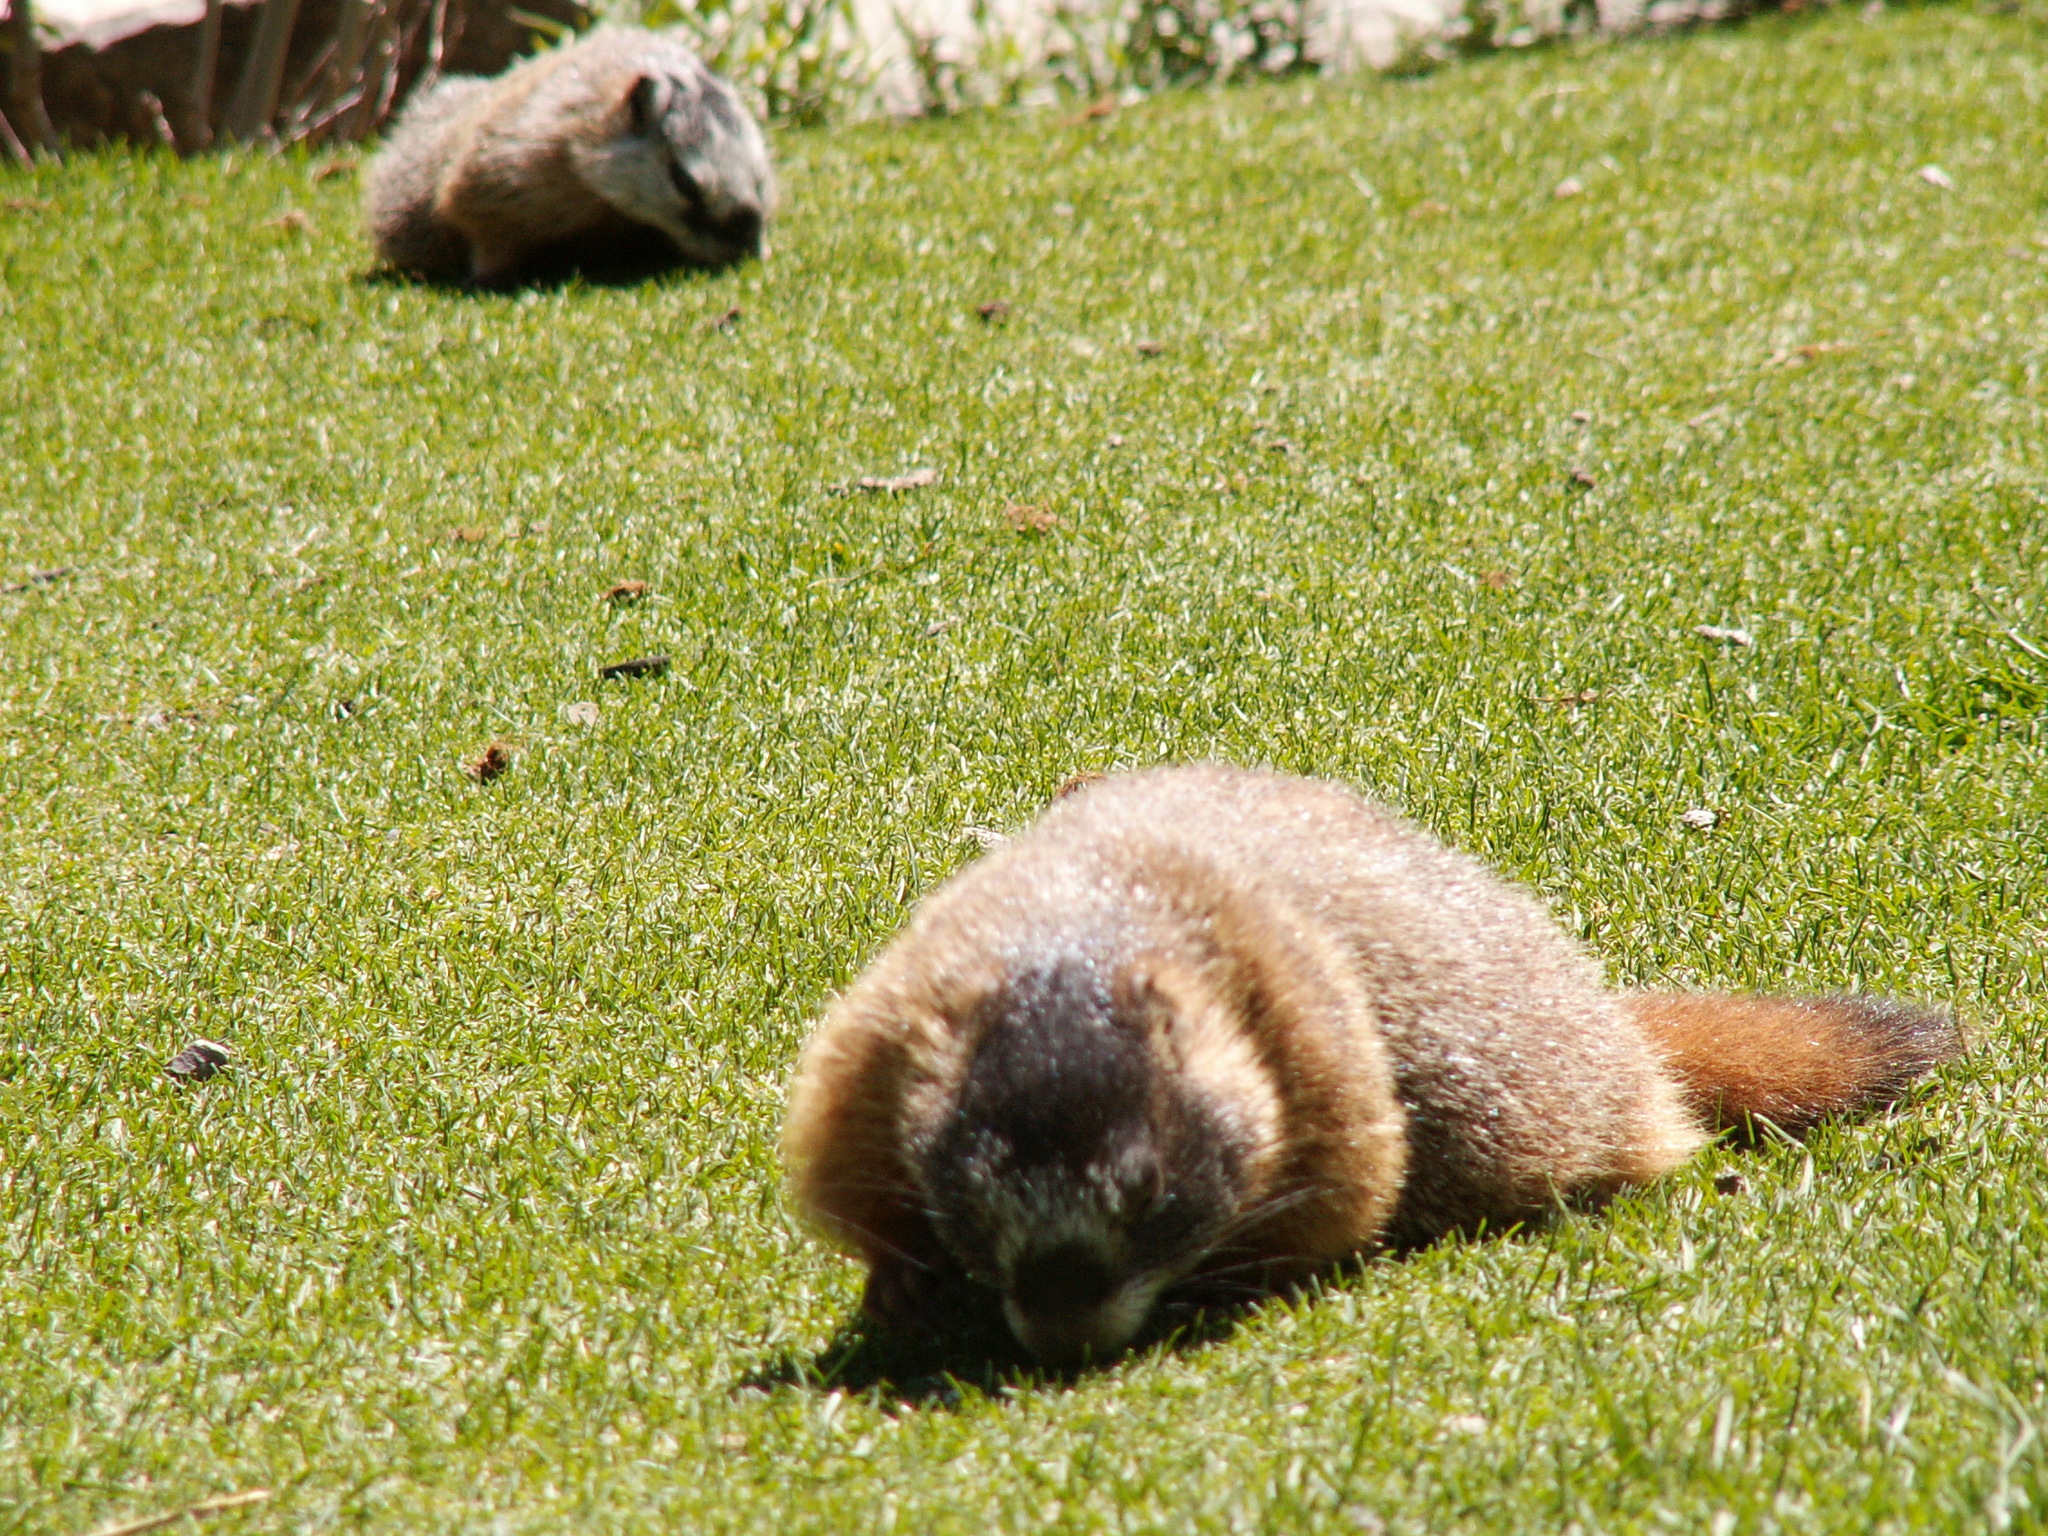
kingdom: Animalia
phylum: Chordata
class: Mammalia
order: Rodentia
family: Sciuridae
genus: Marmota
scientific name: Marmota flaviventris
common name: Yellow-bellied marmot
